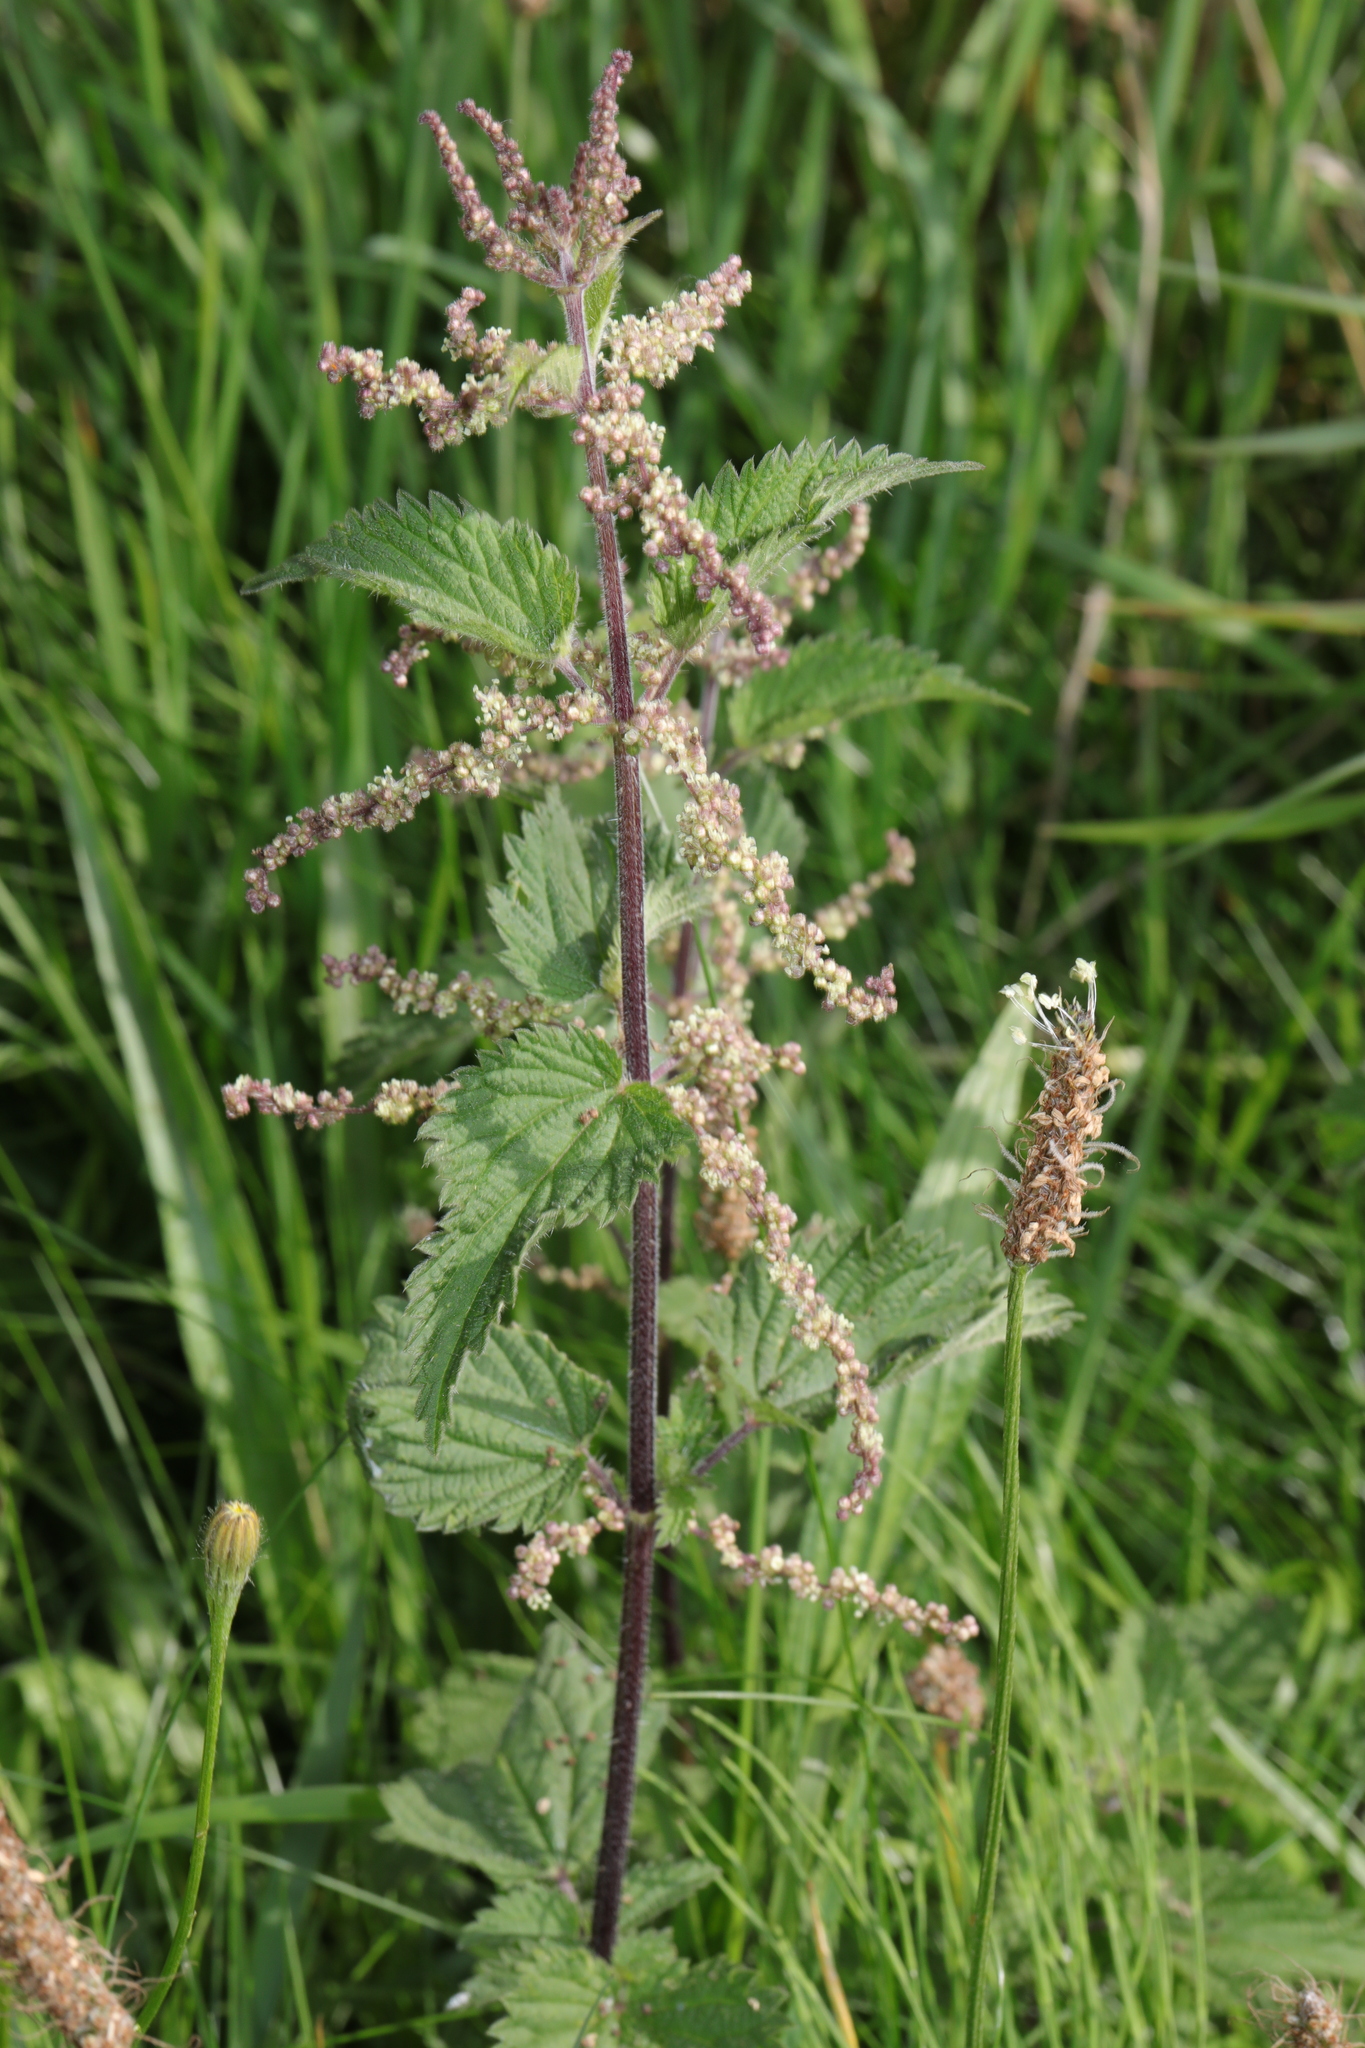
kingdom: Plantae
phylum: Tracheophyta
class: Magnoliopsida
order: Rosales
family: Urticaceae
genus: Urtica
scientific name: Urtica dioica
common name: Common nettle
